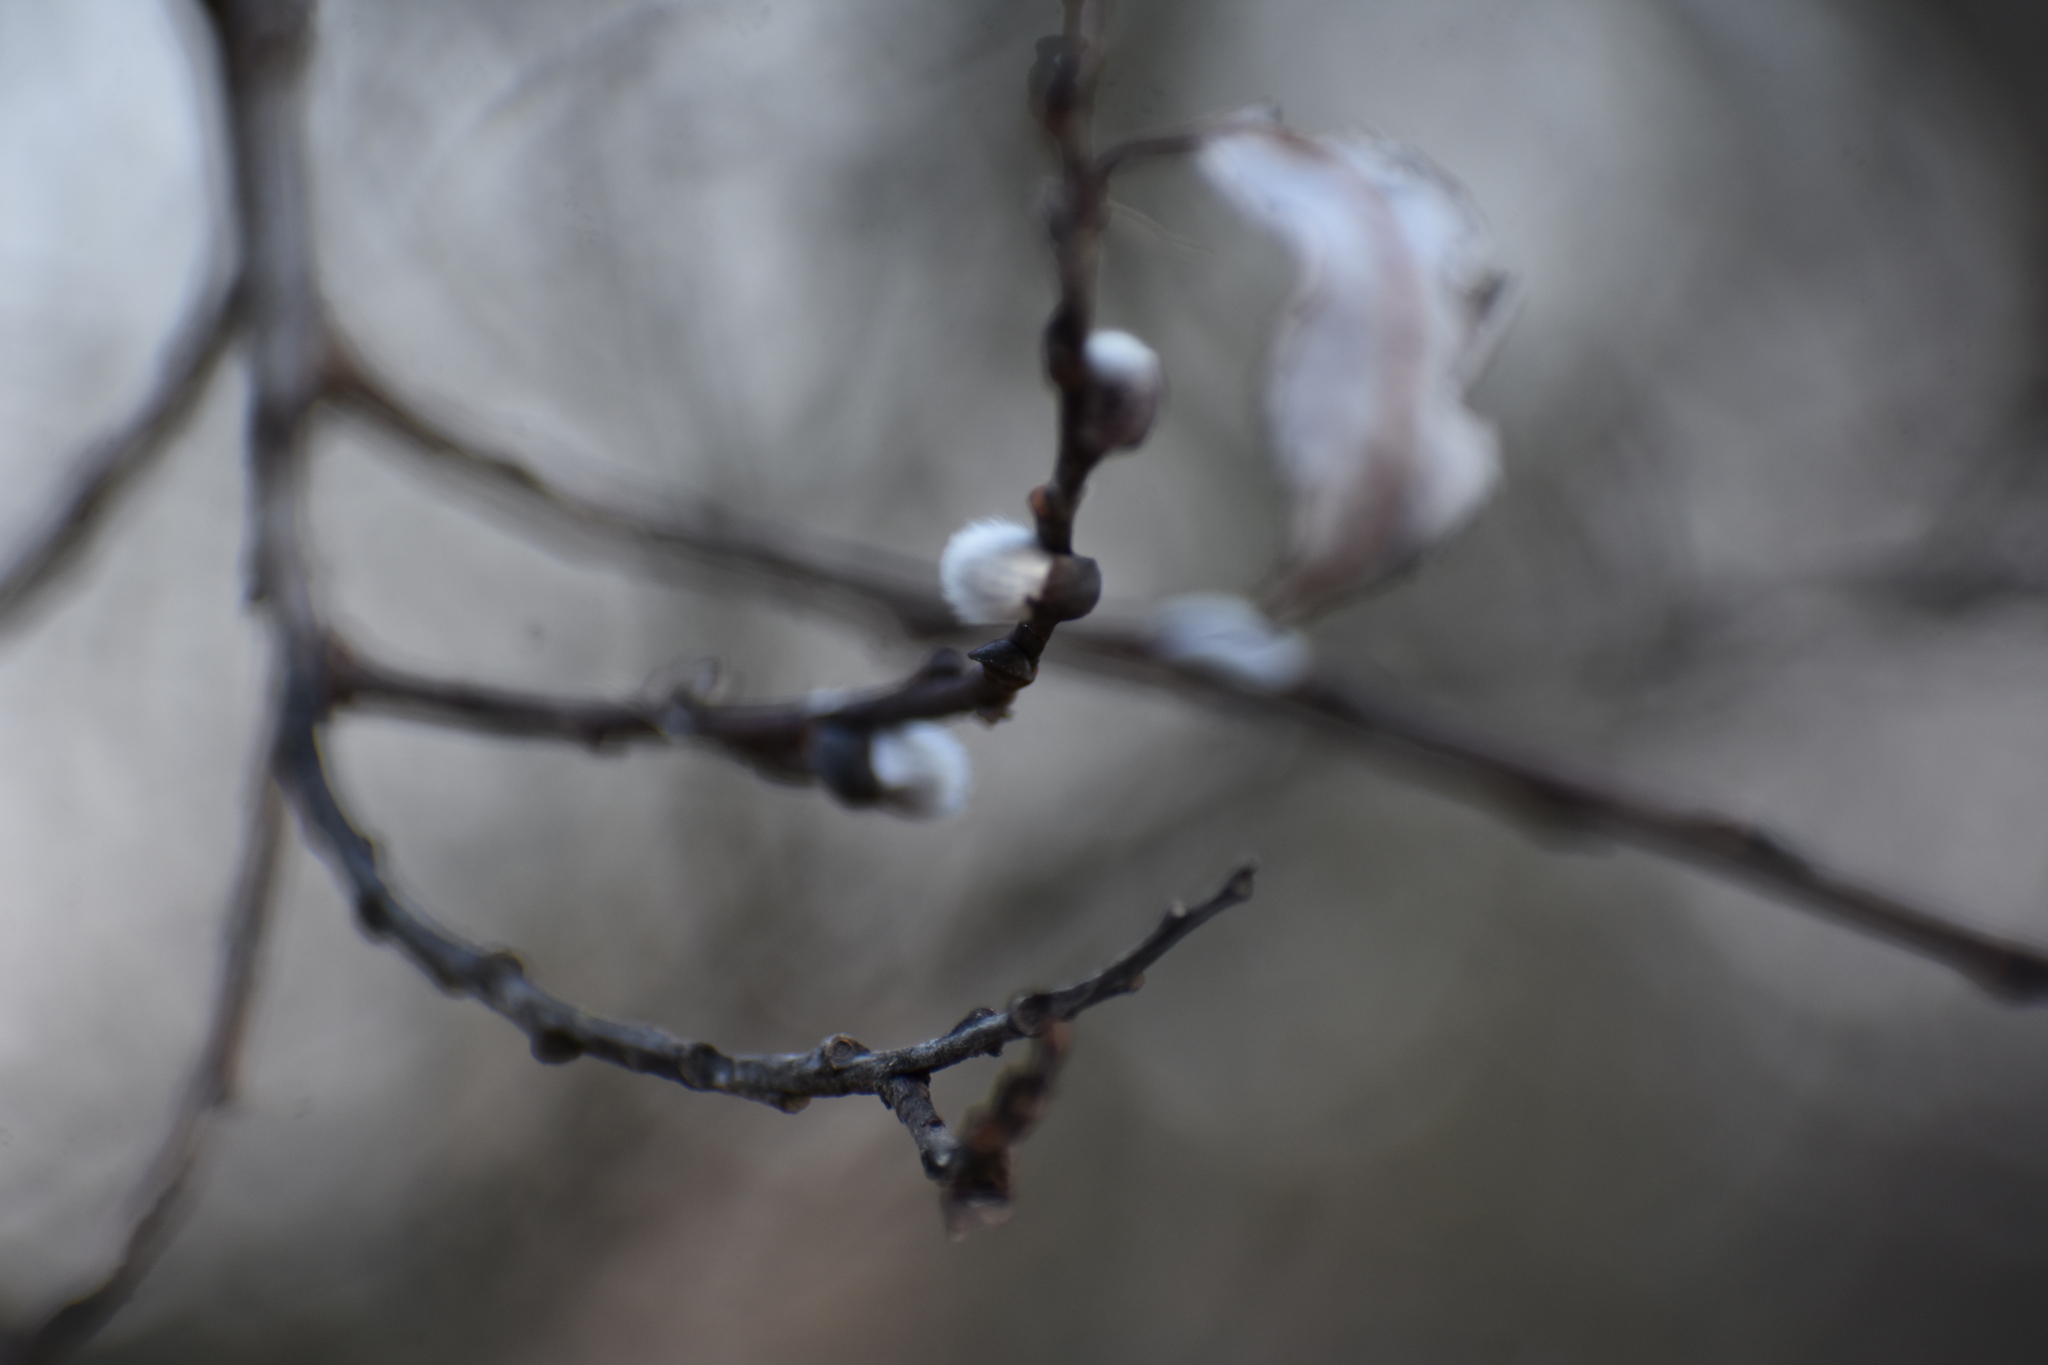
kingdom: Plantae
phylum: Tracheophyta
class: Magnoliopsida
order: Malpighiales
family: Salicaceae
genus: Salix
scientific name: Salix discolor
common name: Glaucous willow
